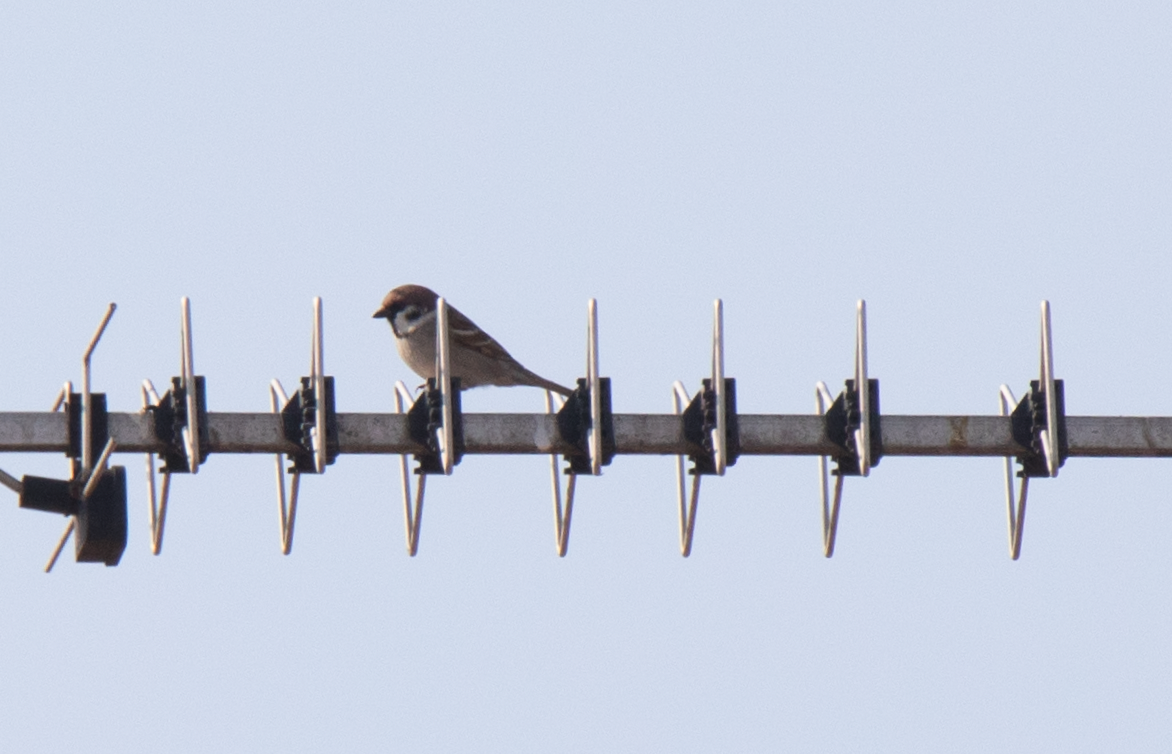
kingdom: Animalia
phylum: Chordata
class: Aves
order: Passeriformes
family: Passeridae
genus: Passer
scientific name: Passer montanus
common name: Eurasian tree sparrow
